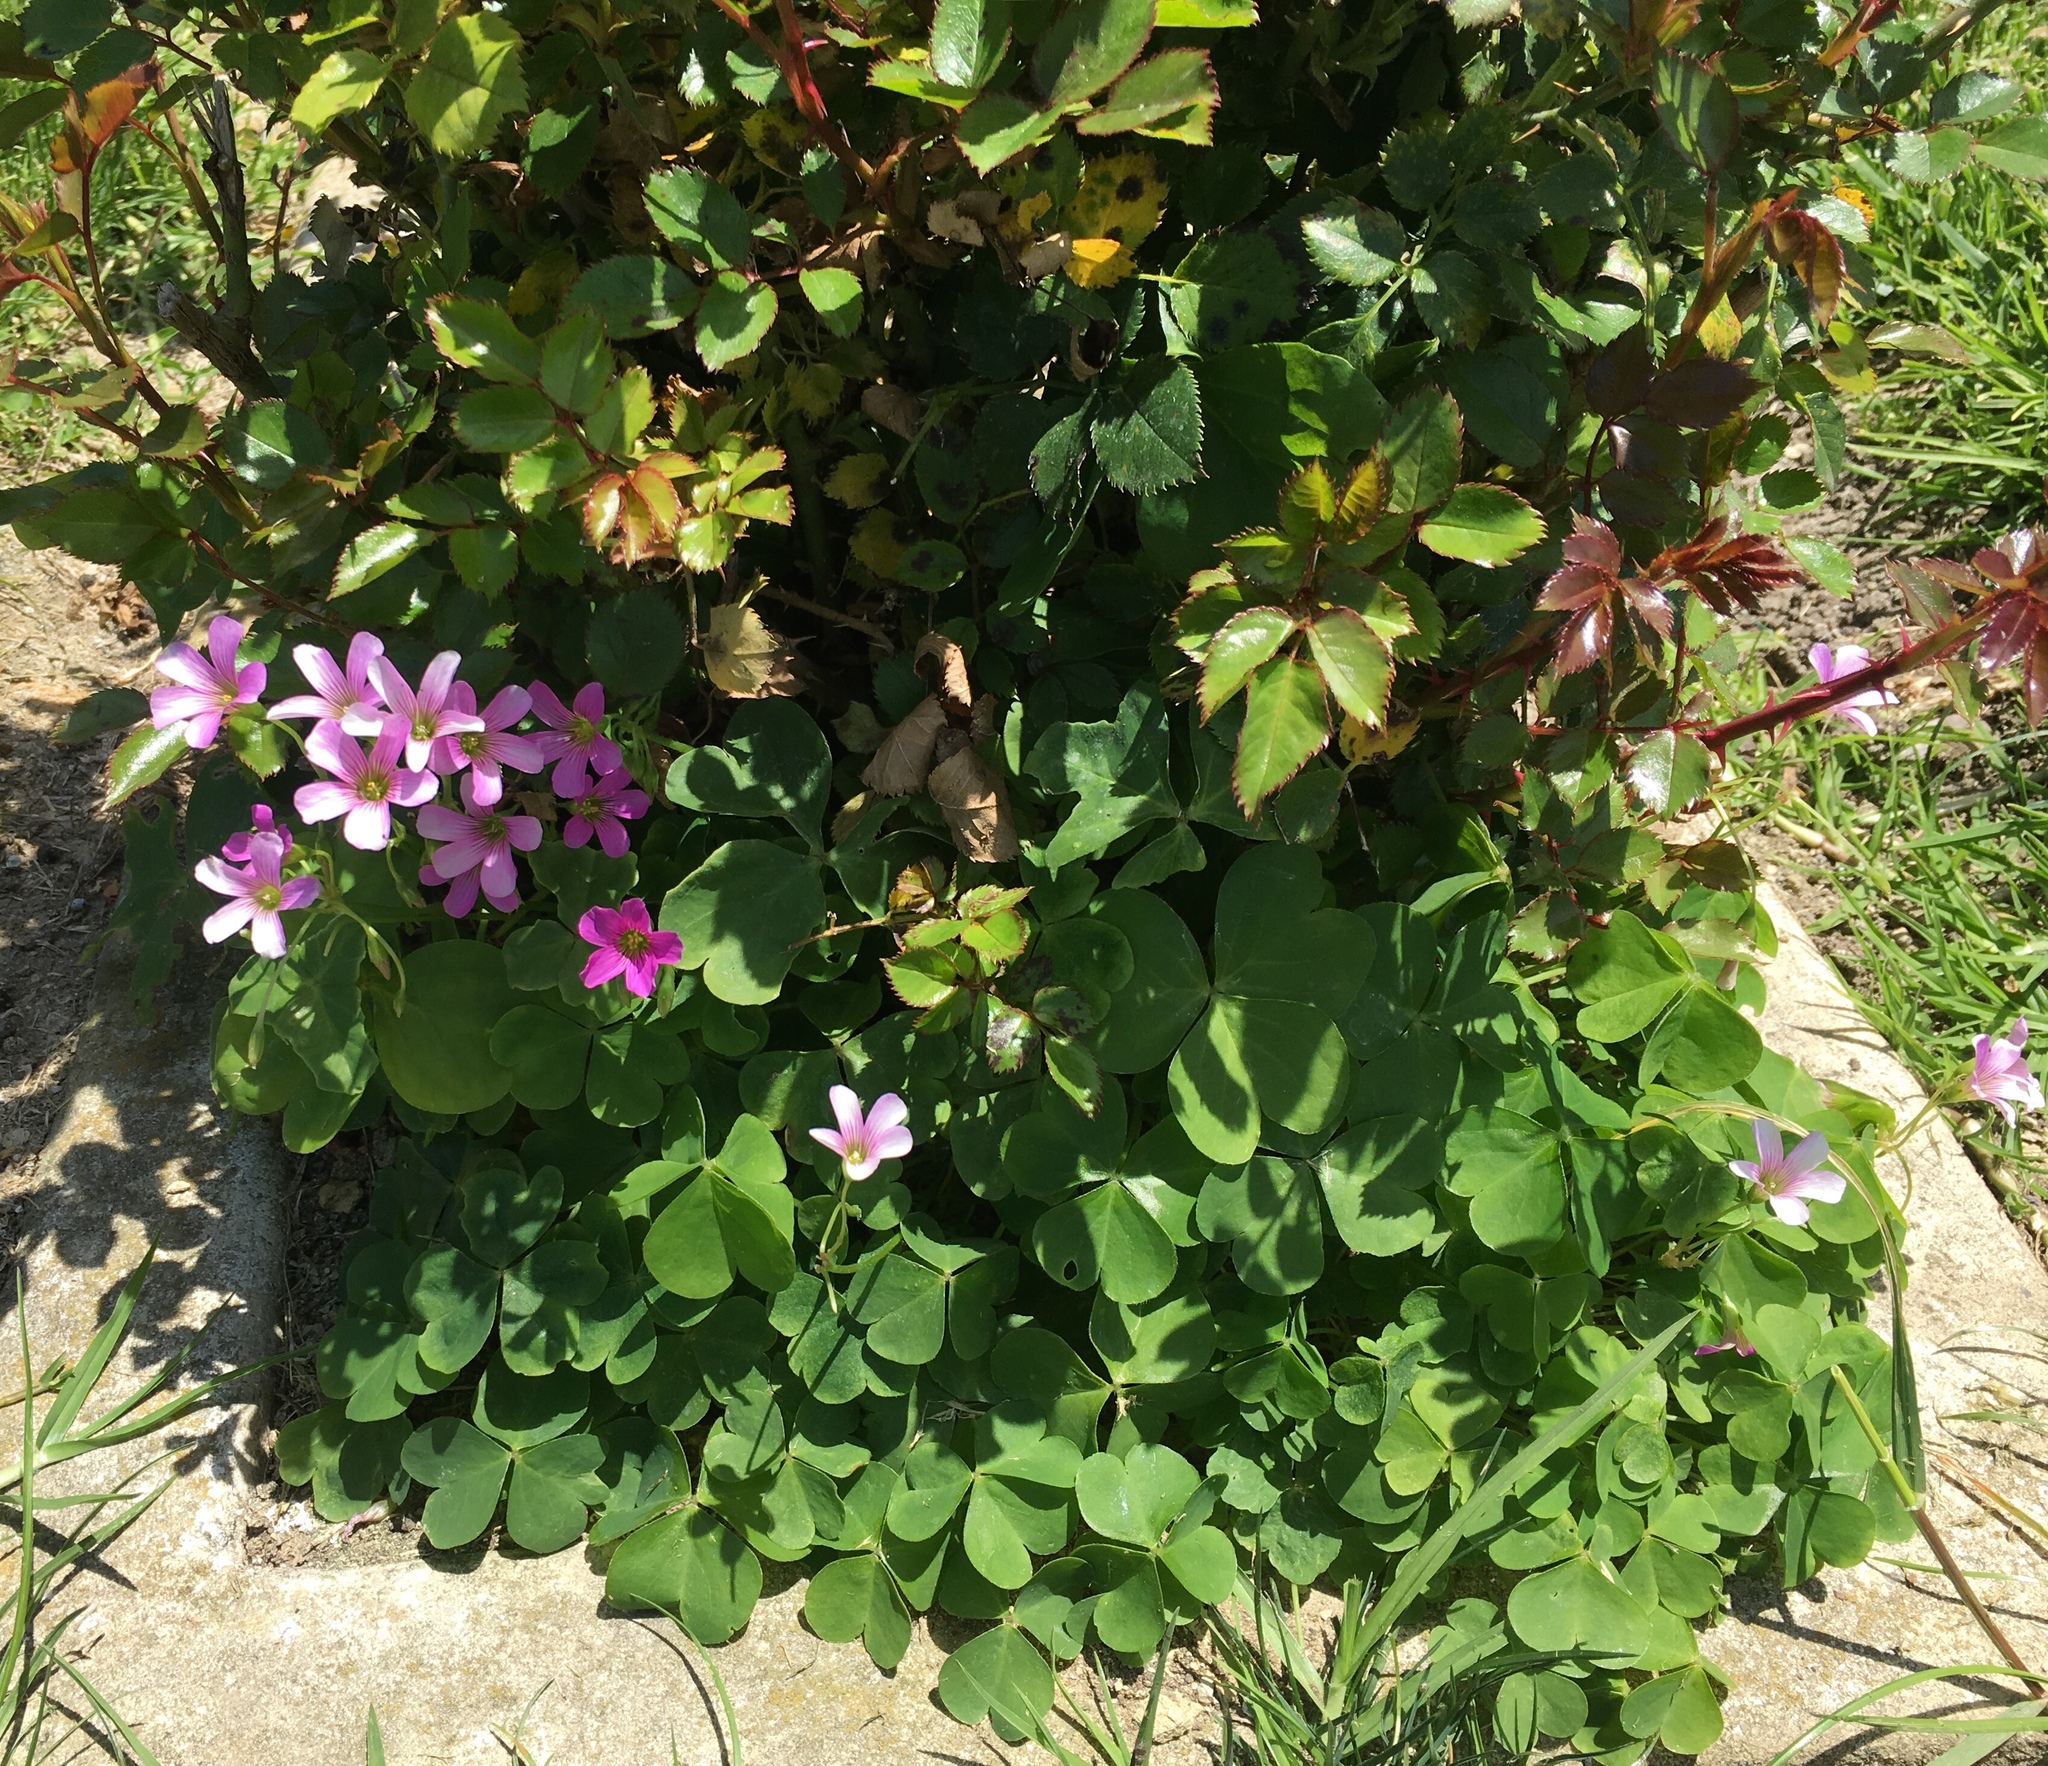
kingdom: Plantae
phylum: Tracheophyta
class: Magnoliopsida
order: Oxalidales
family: Oxalidaceae
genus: Oxalis
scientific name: Oxalis debilis
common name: Large-flowered pink-sorrel
